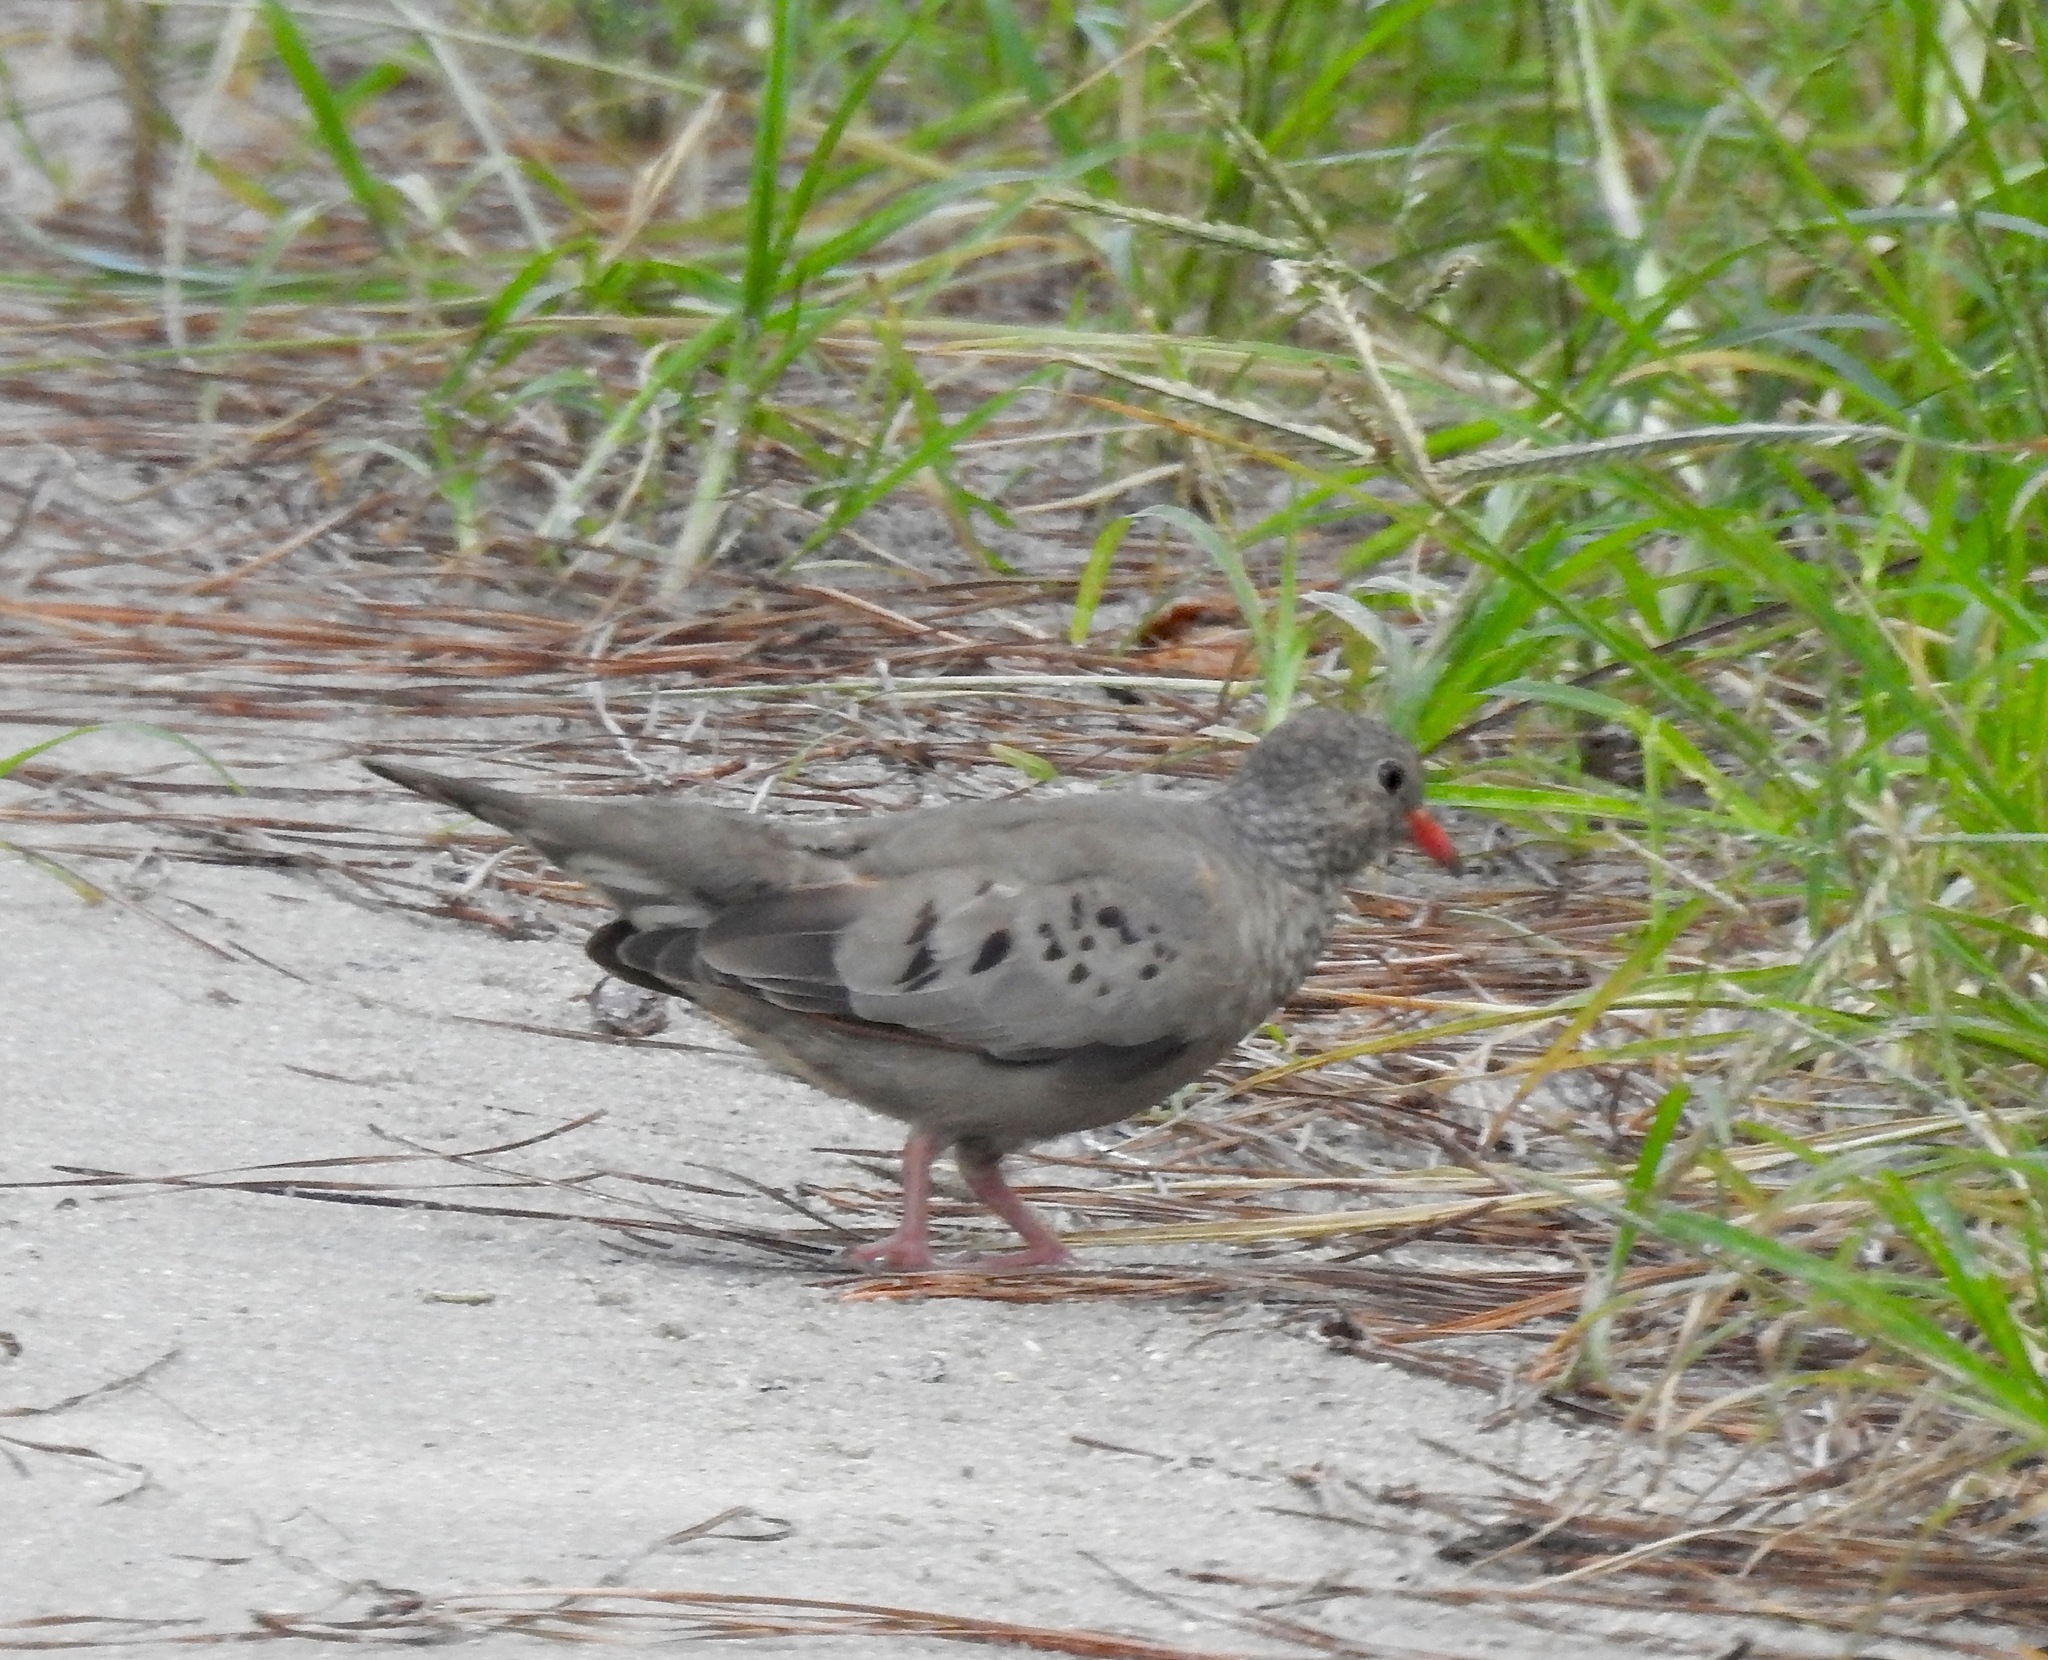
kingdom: Animalia
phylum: Chordata
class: Aves
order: Columbiformes
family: Columbidae
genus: Columbina
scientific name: Columbina passerina
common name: Common ground-dove
